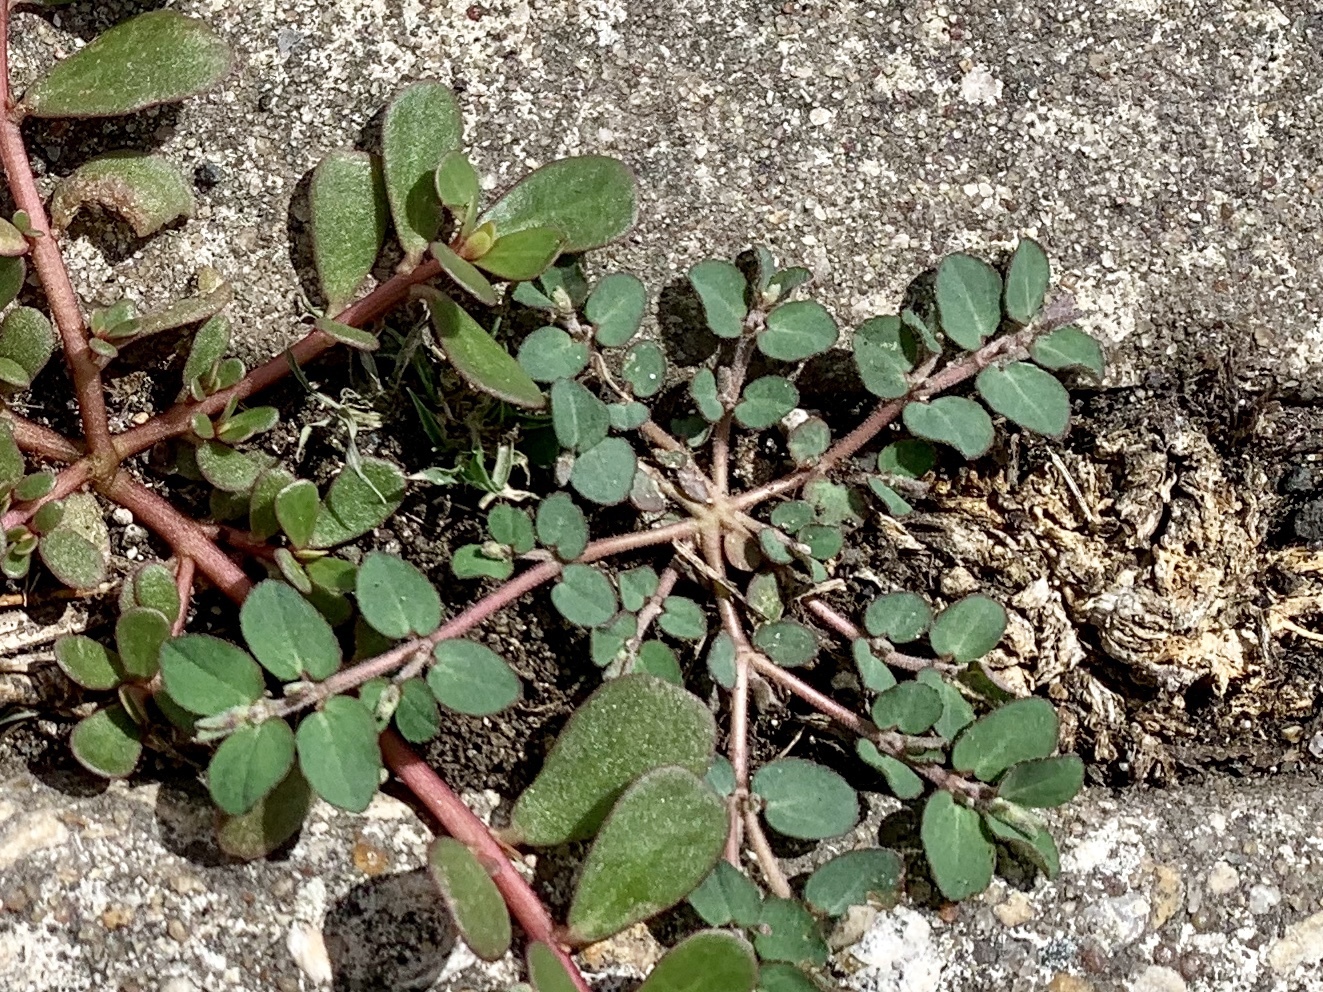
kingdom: Plantae
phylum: Tracheophyta
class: Magnoliopsida
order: Malpighiales
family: Euphorbiaceae
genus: Euphorbia
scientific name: Euphorbia prostrata
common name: Prostrate sandmat
